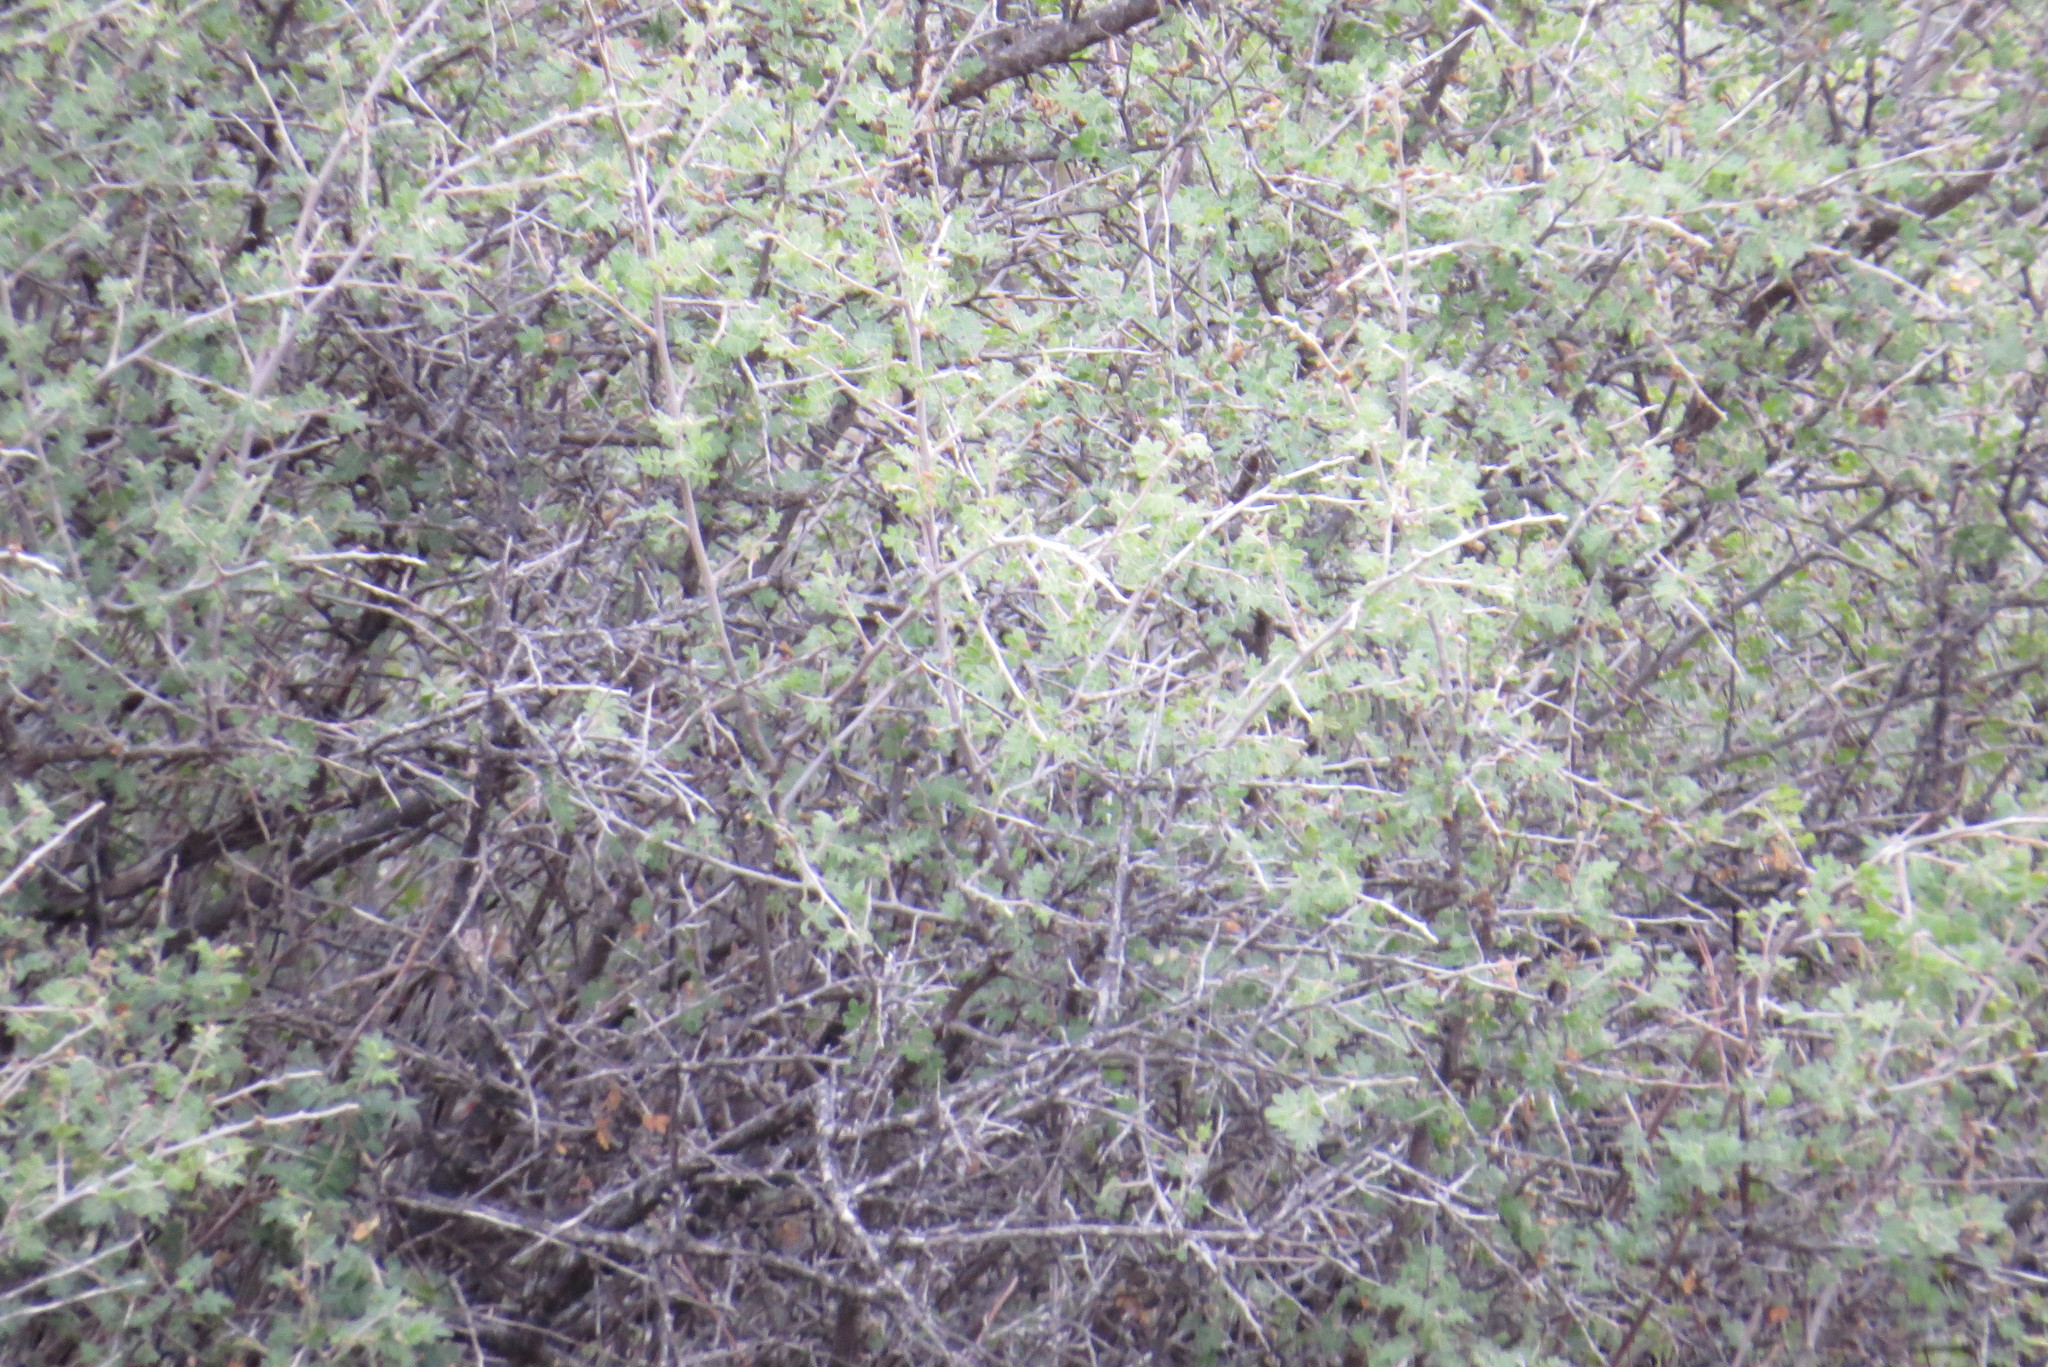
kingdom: Plantae
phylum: Tracheophyta
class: Magnoliopsida
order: Sapindales
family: Anacardiaceae
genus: Rhus
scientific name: Rhus microphylla
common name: Desert sumac
